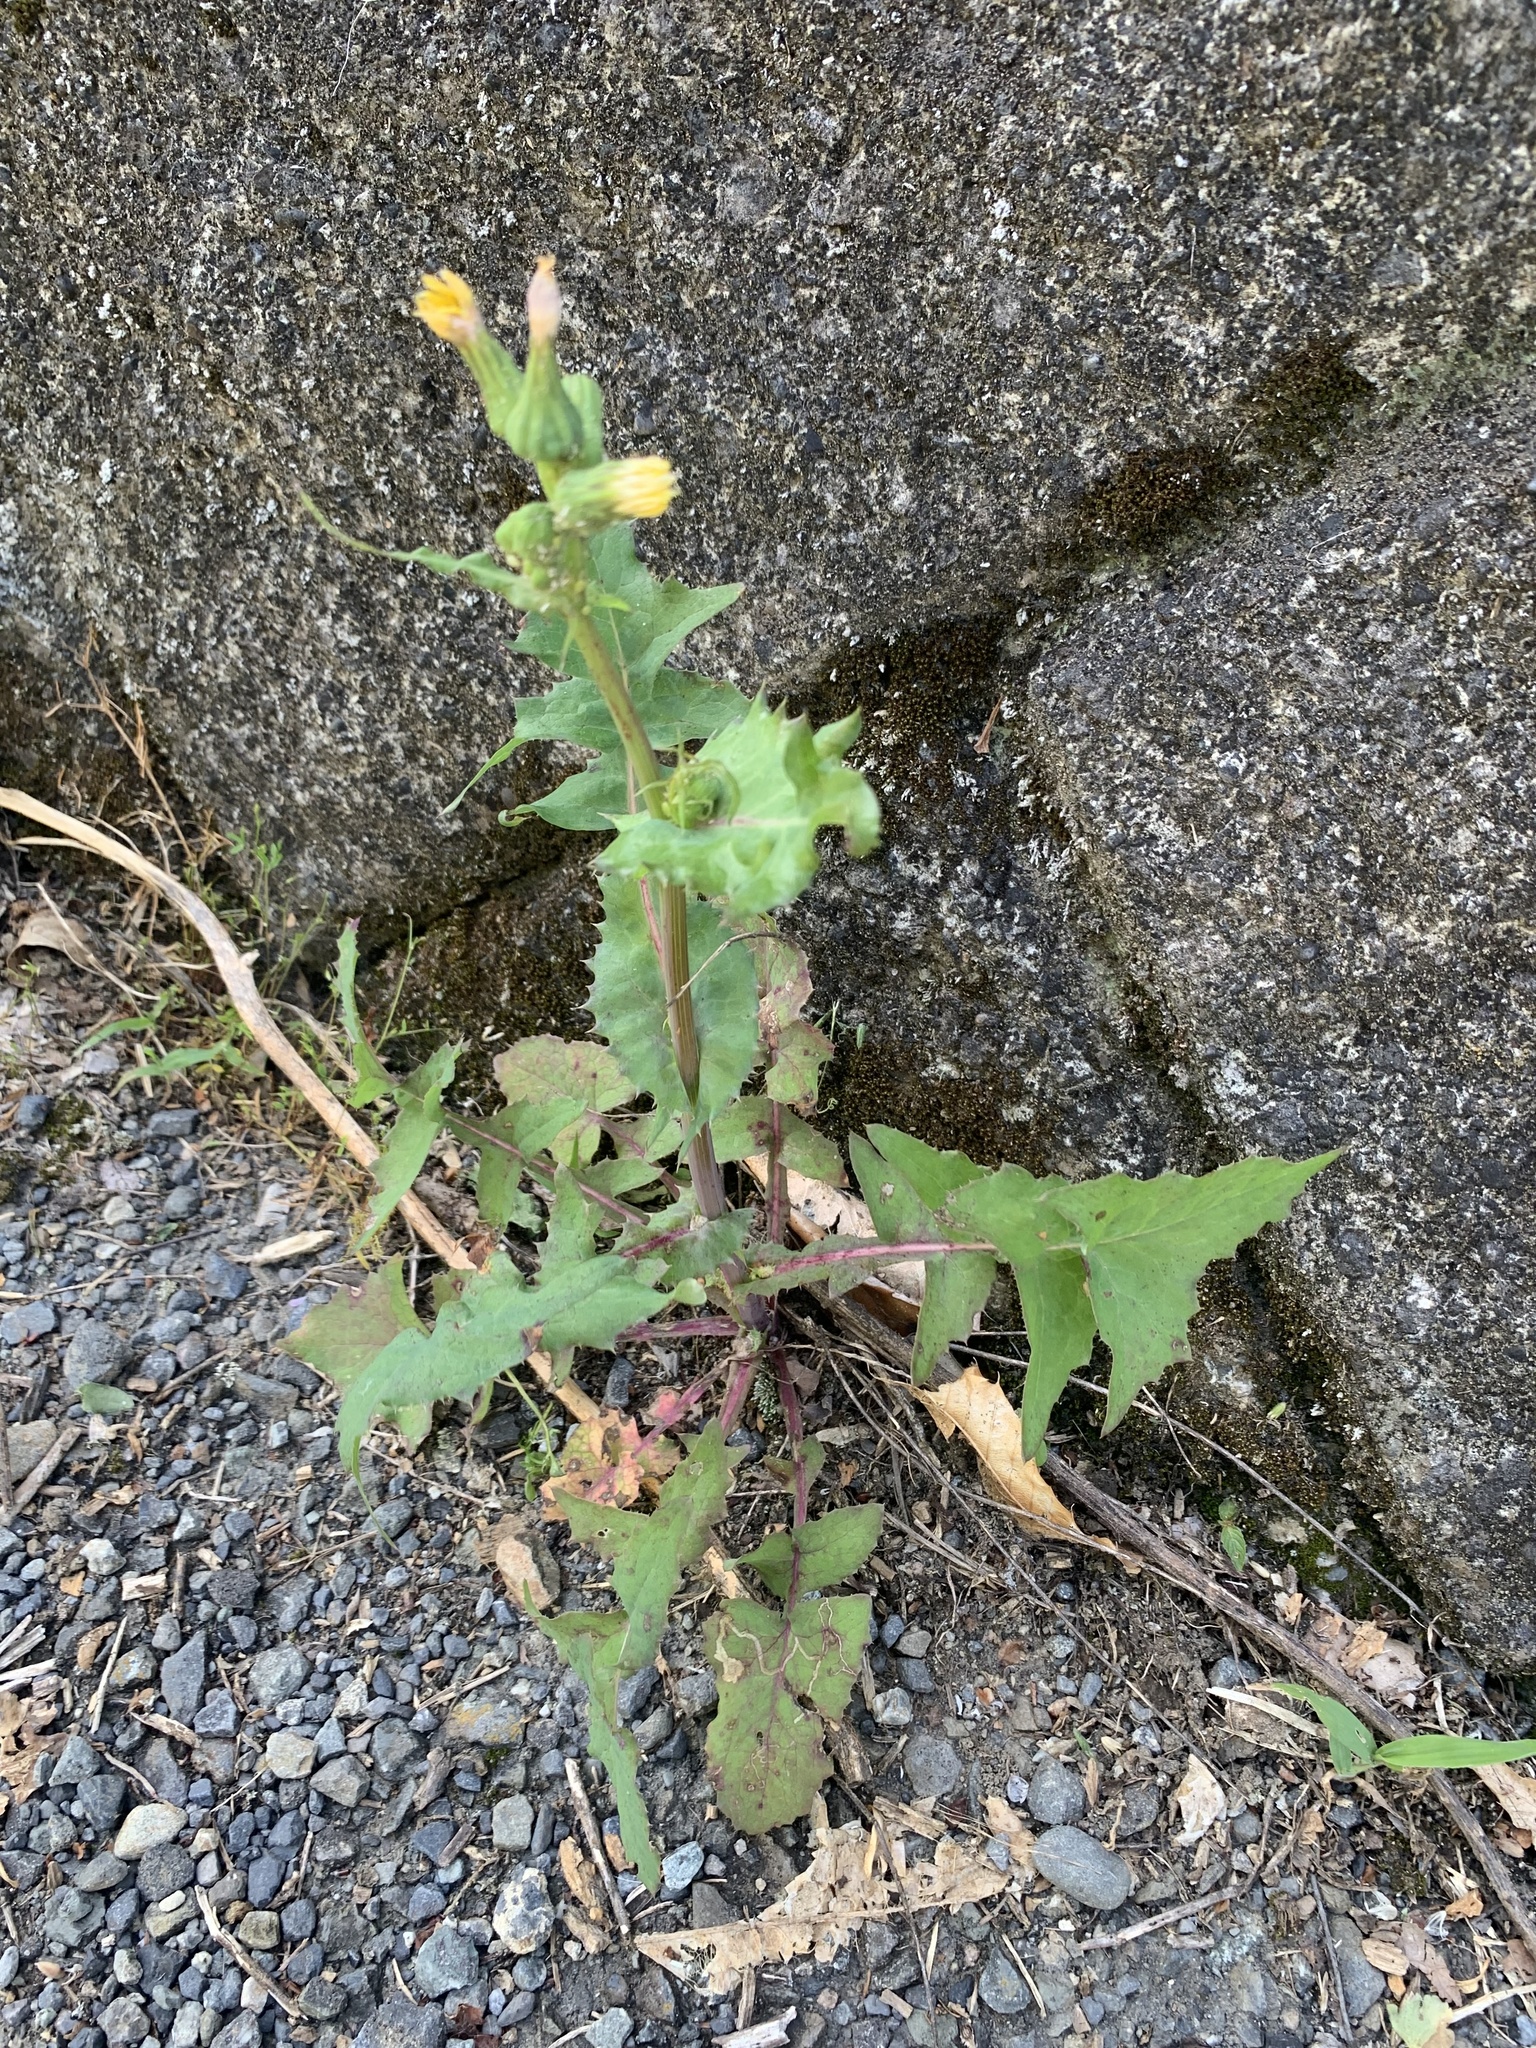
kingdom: Plantae
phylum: Tracheophyta
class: Magnoliopsida
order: Asterales
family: Asteraceae
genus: Sonchus
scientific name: Sonchus oleraceus
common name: Common sowthistle
